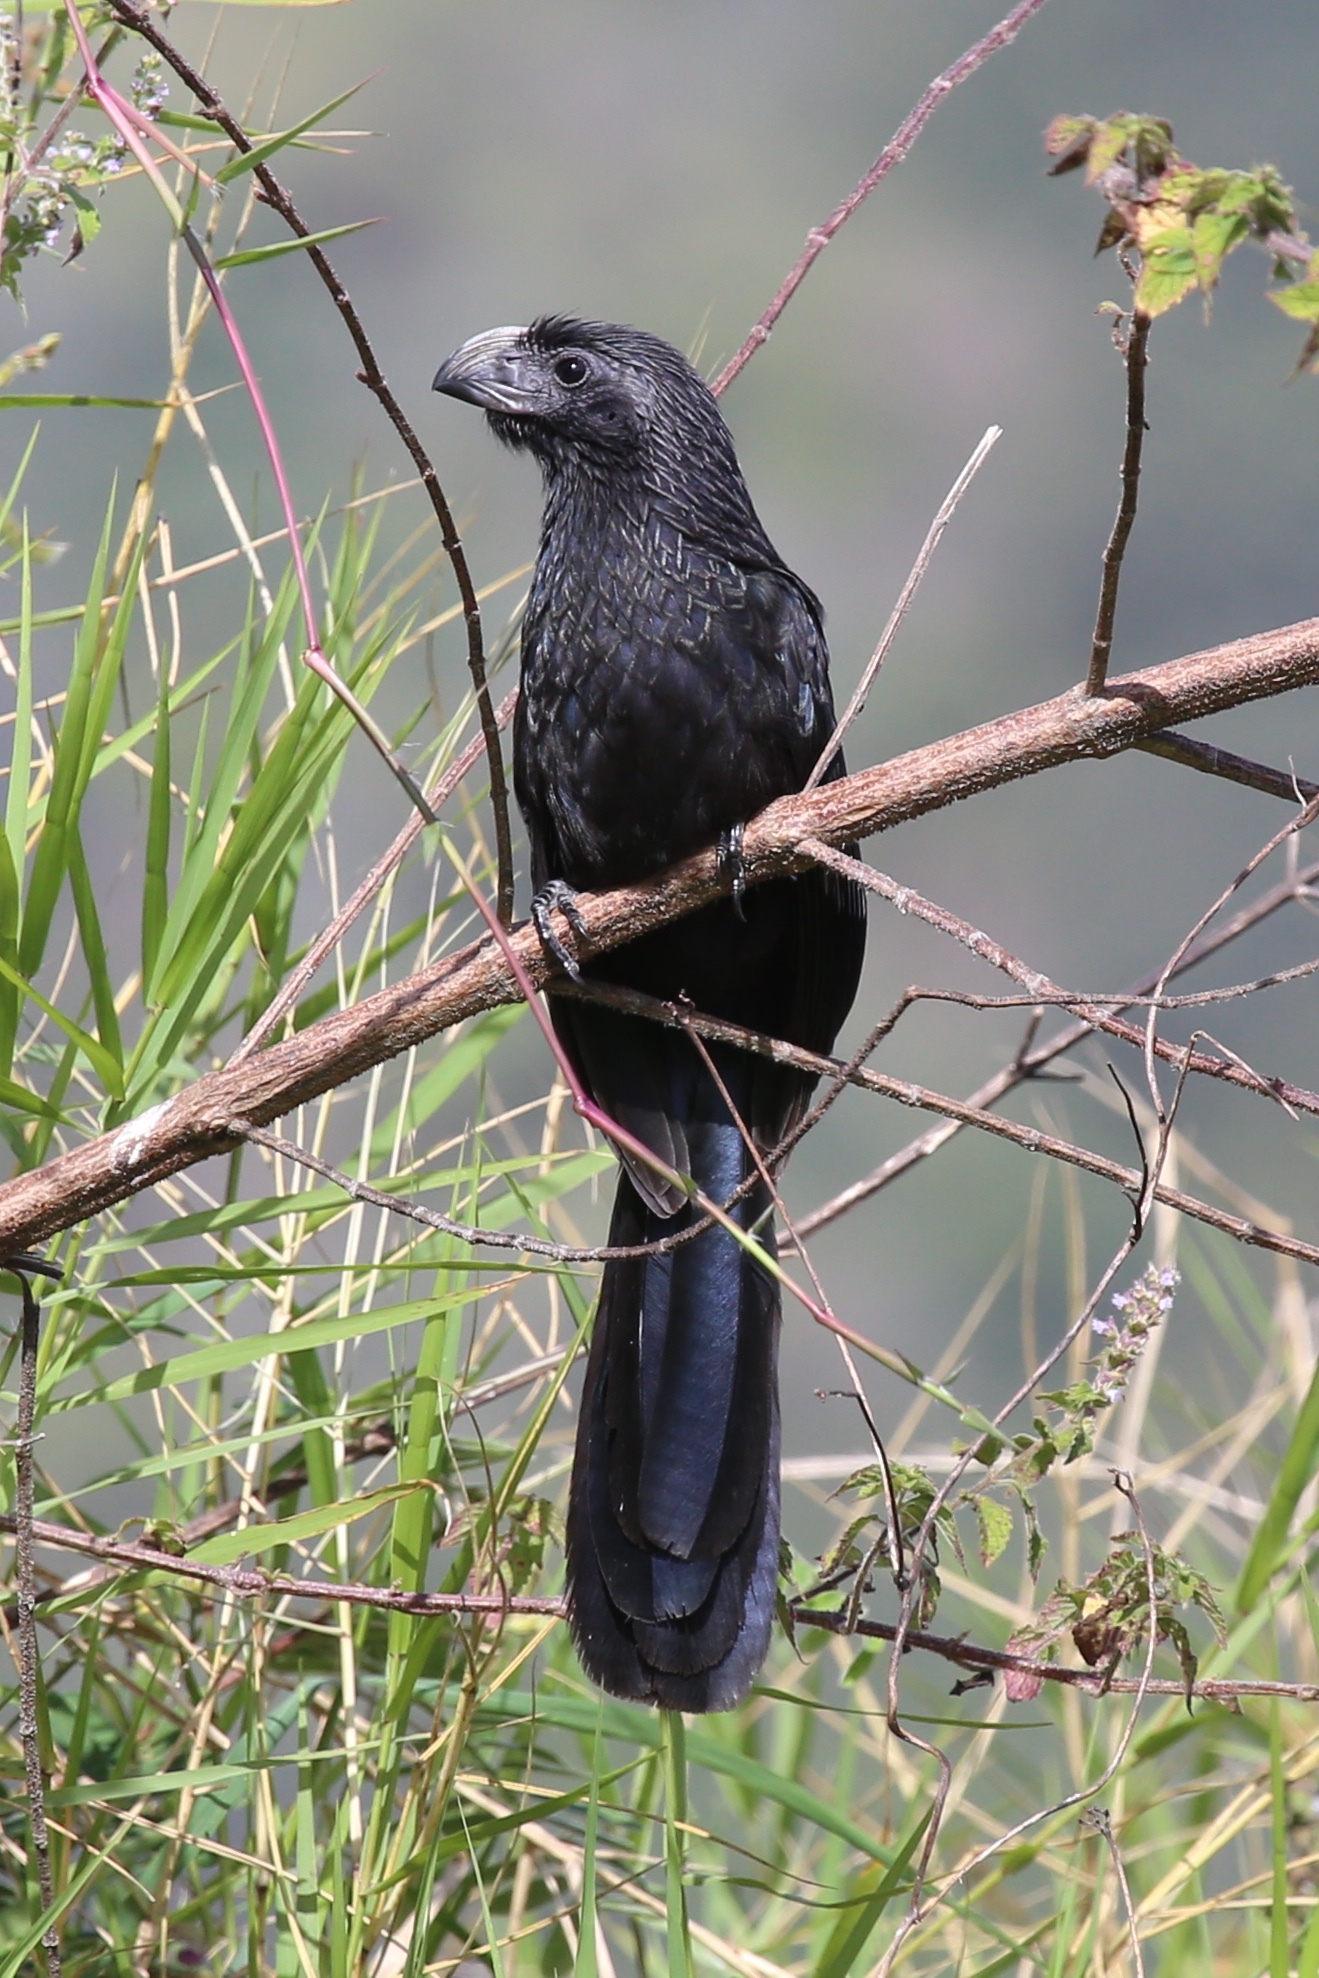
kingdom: Animalia
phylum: Chordata
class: Aves
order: Cuculiformes
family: Cuculidae
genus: Crotophaga
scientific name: Crotophaga sulcirostris
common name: Groove-billed ani
